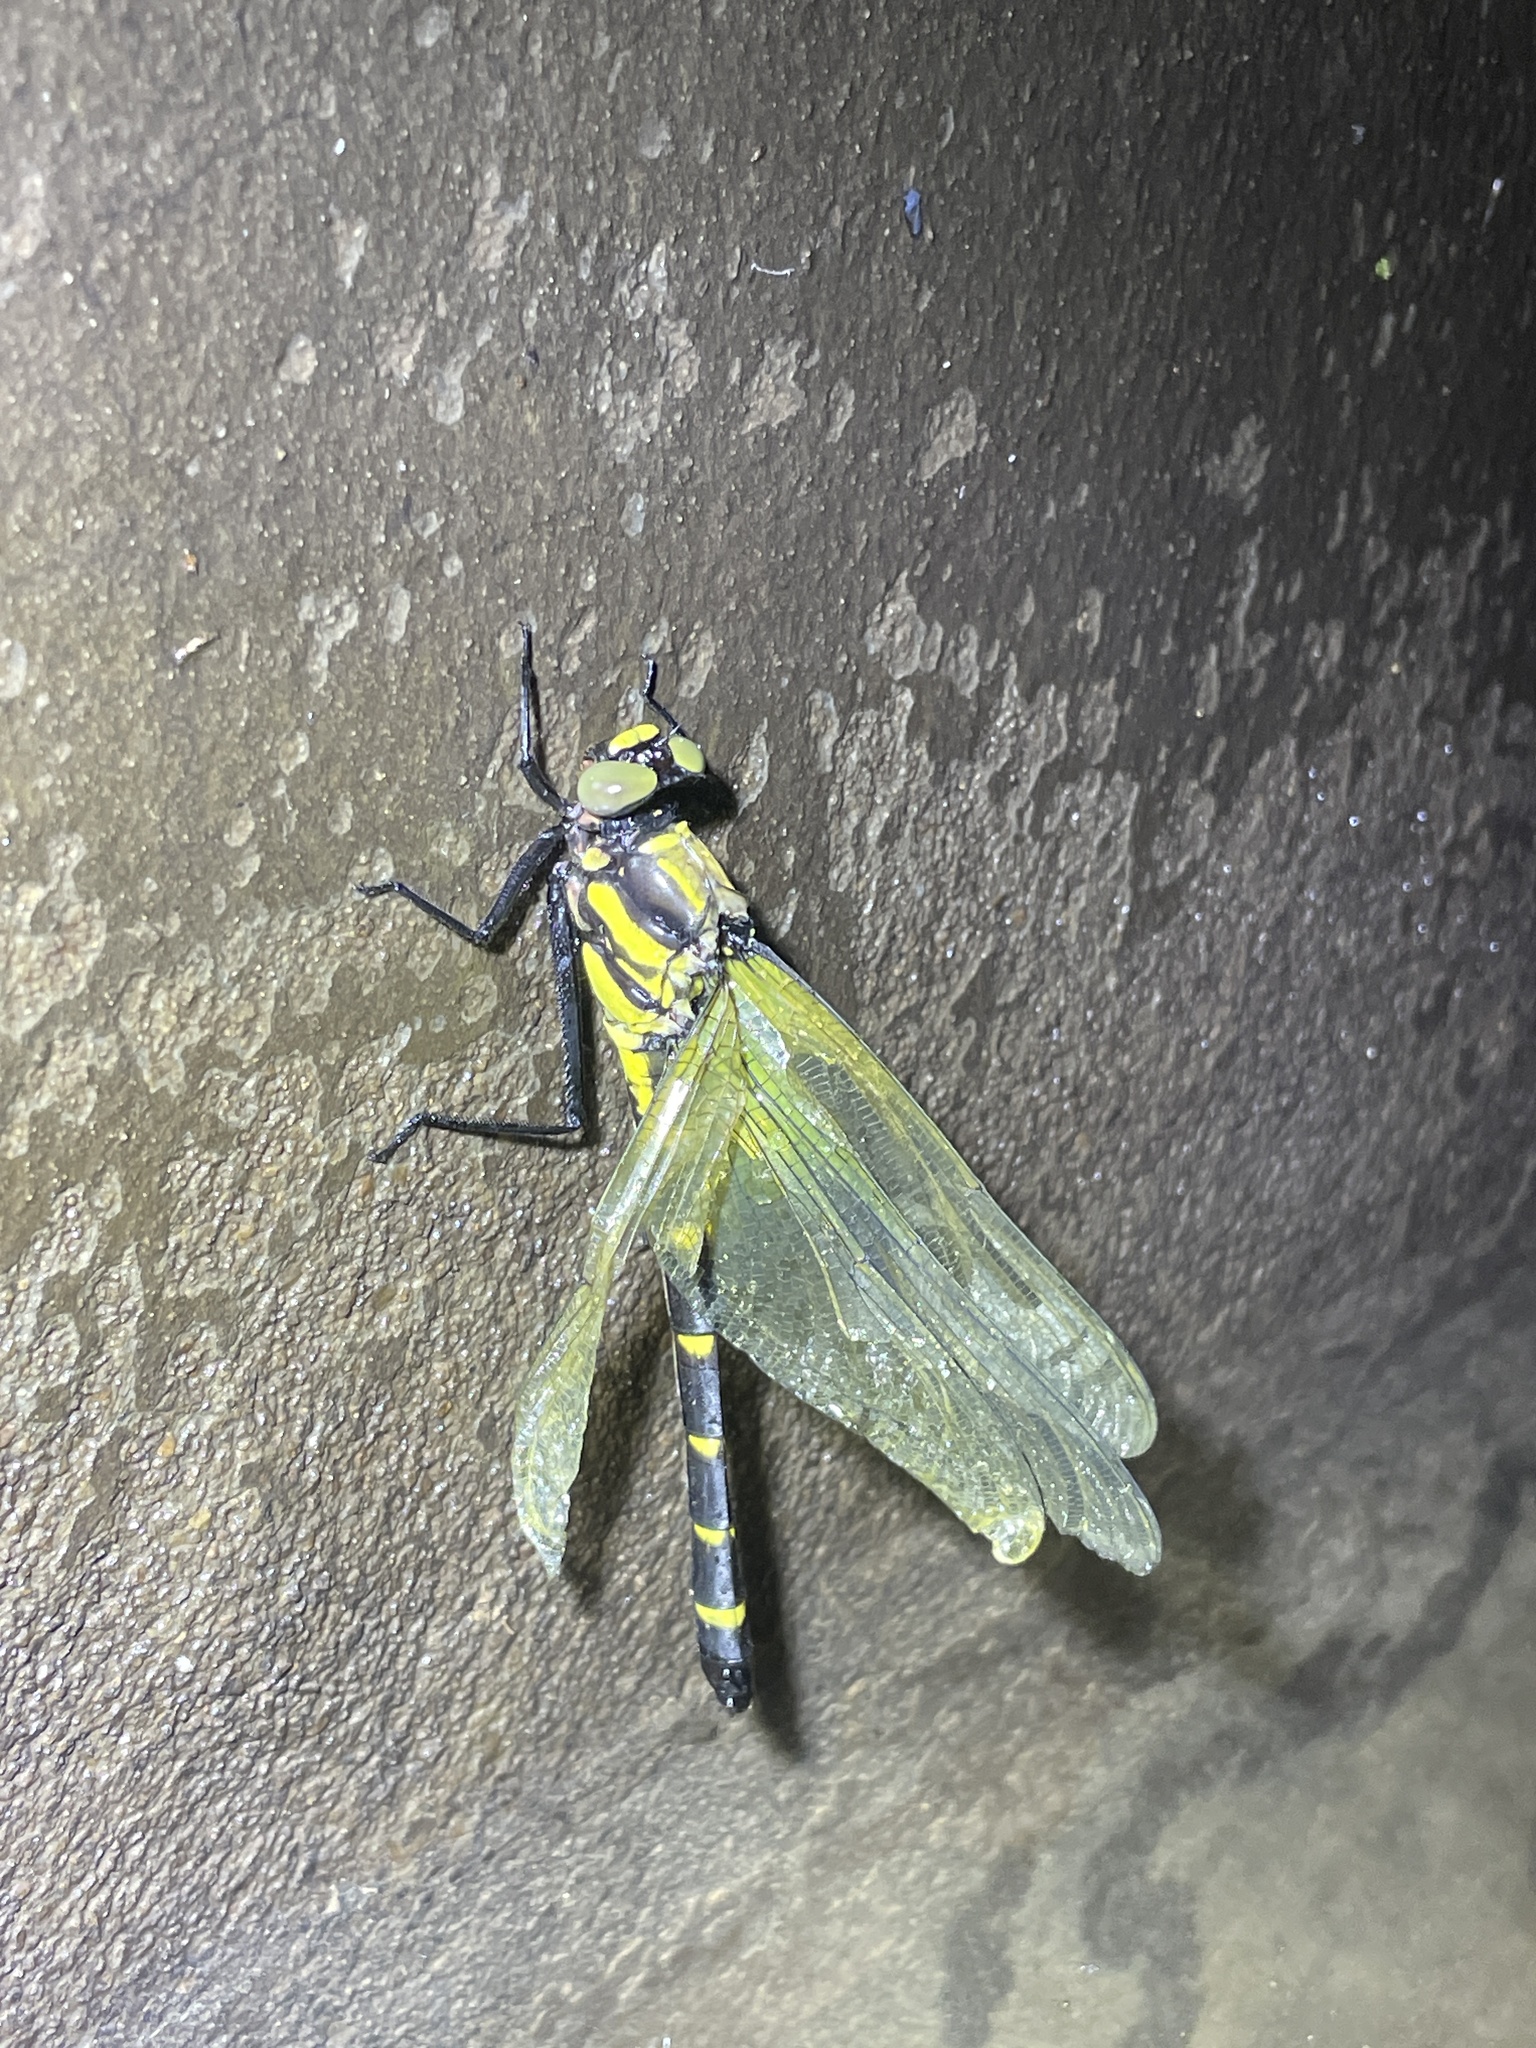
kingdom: Animalia
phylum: Arthropoda
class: Insecta
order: Odonata
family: Gomphidae
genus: Sieboldius
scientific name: Sieboldius alexanderi
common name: Small dragonhunter
